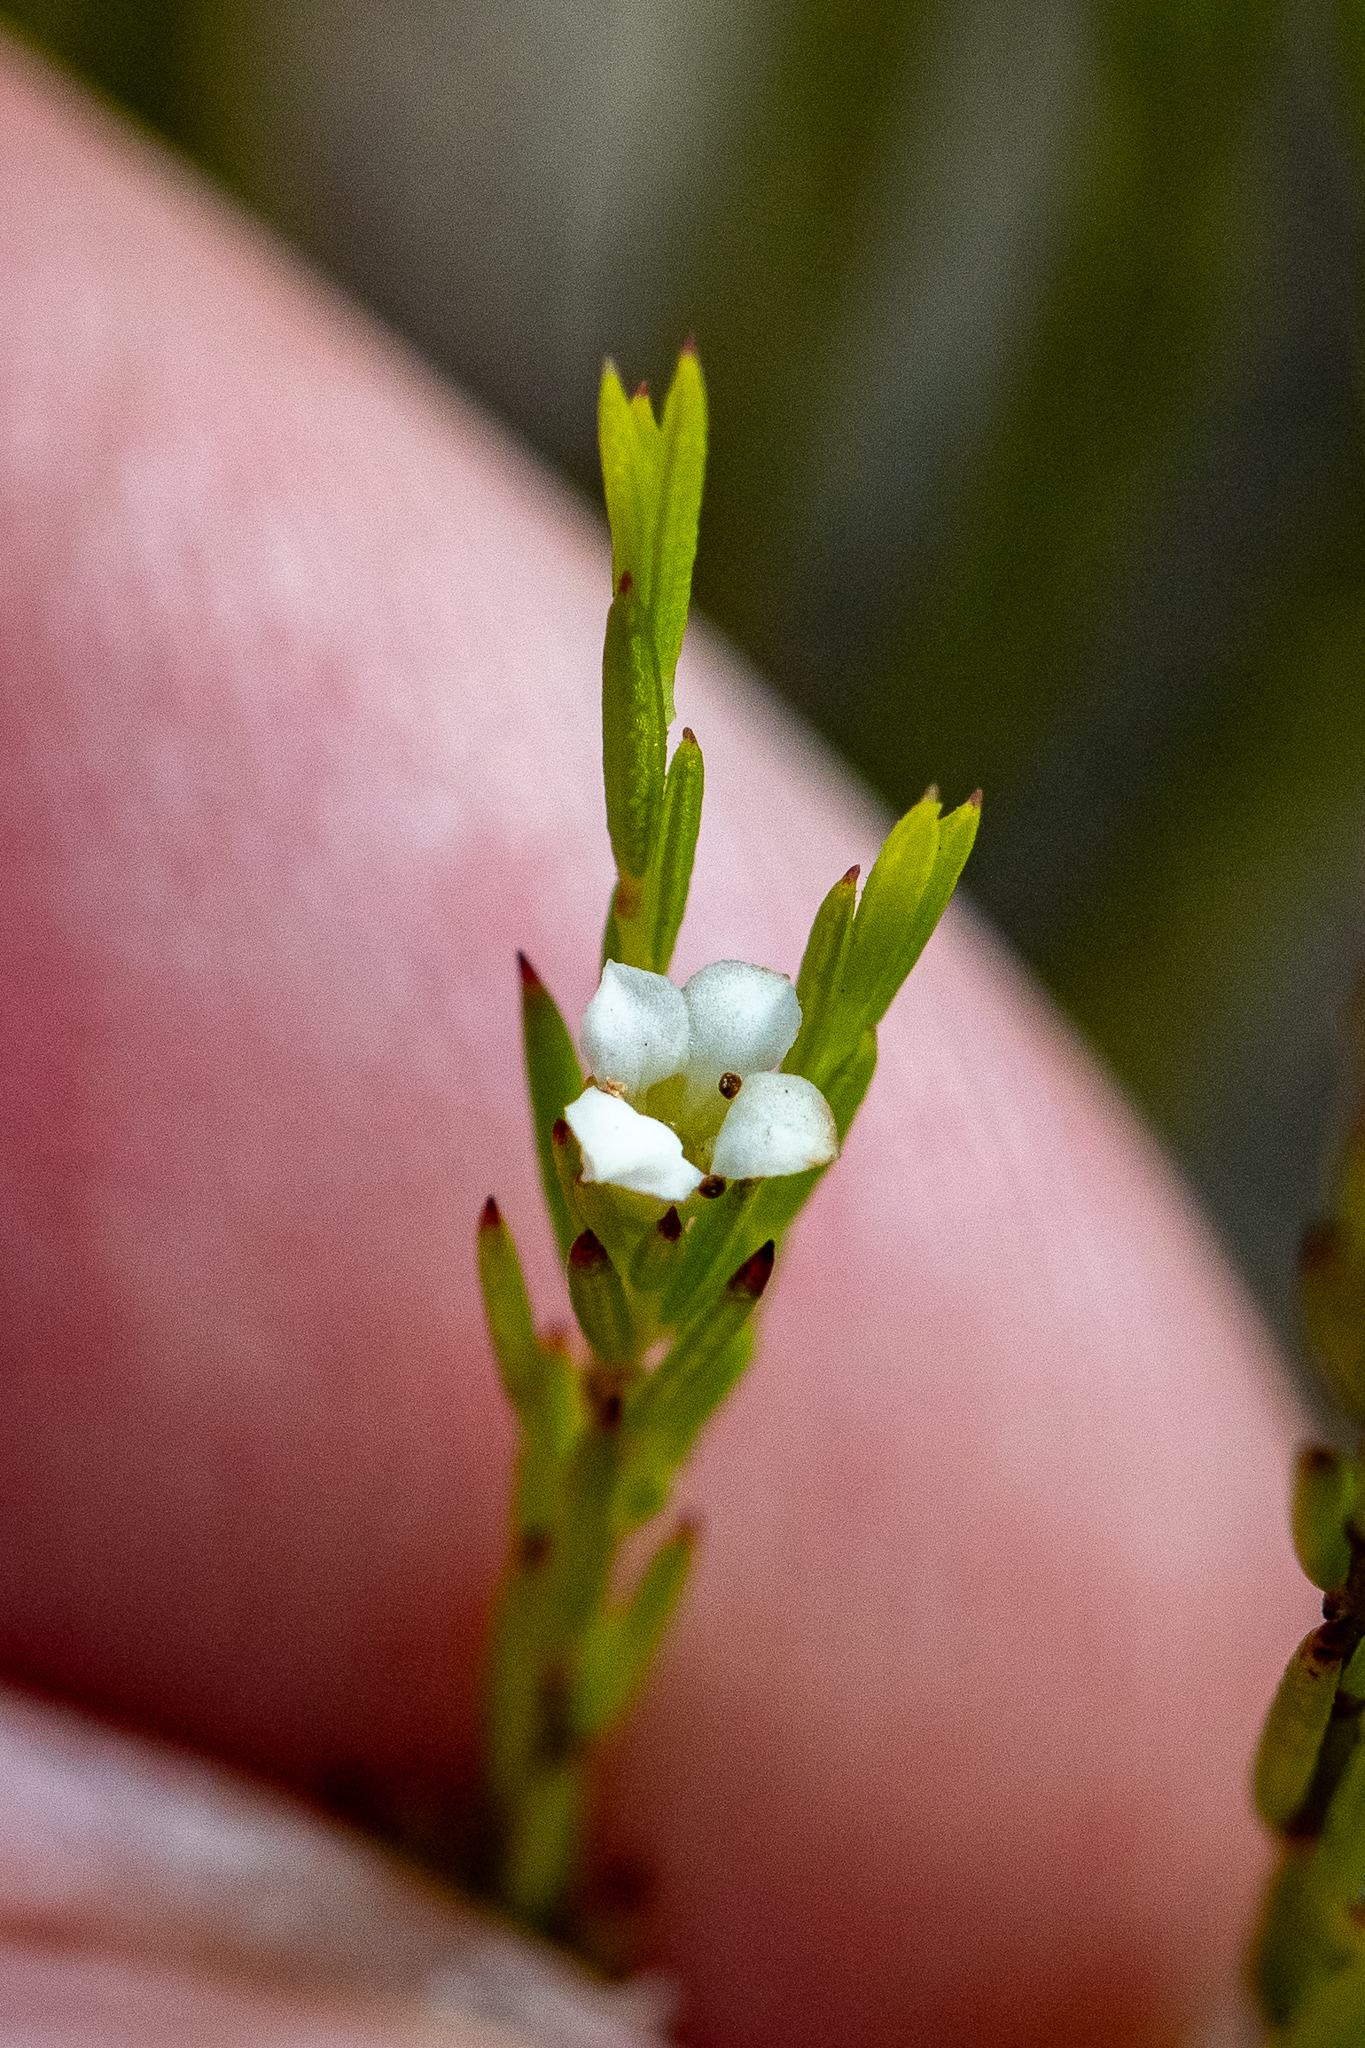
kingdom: Plantae
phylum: Tracheophyta
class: Magnoliopsida
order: Sapindales
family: Rutaceae
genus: Coleonema
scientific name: Coleonema juniperinum
